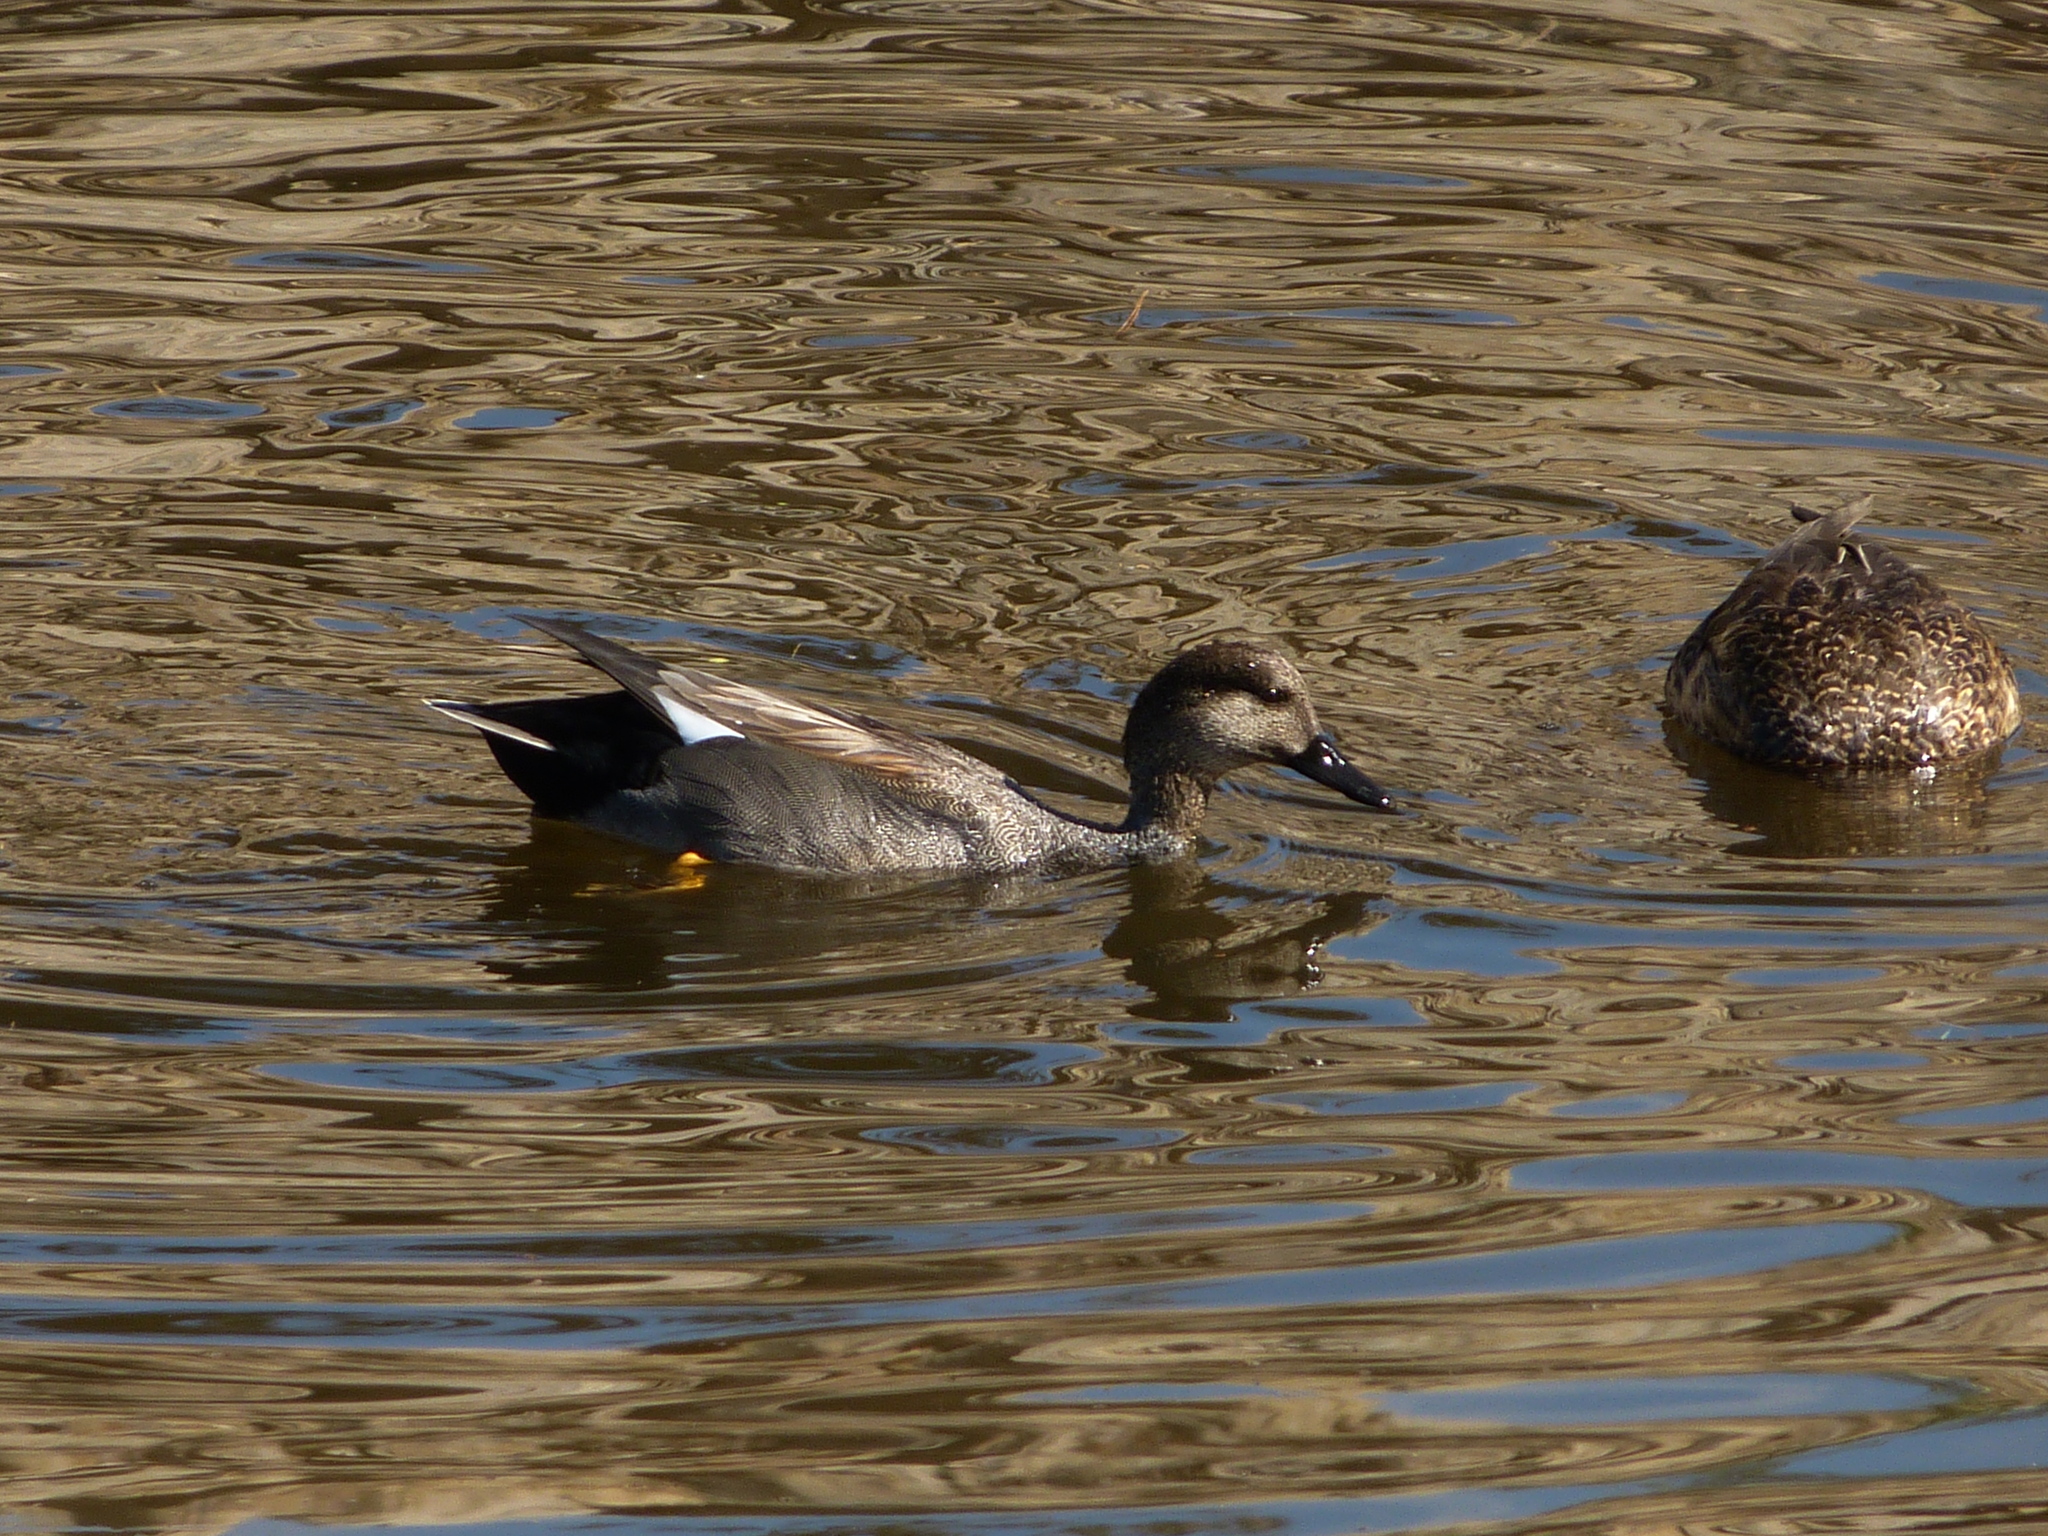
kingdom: Animalia
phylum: Chordata
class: Aves
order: Anseriformes
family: Anatidae
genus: Mareca
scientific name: Mareca strepera
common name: Gadwall
